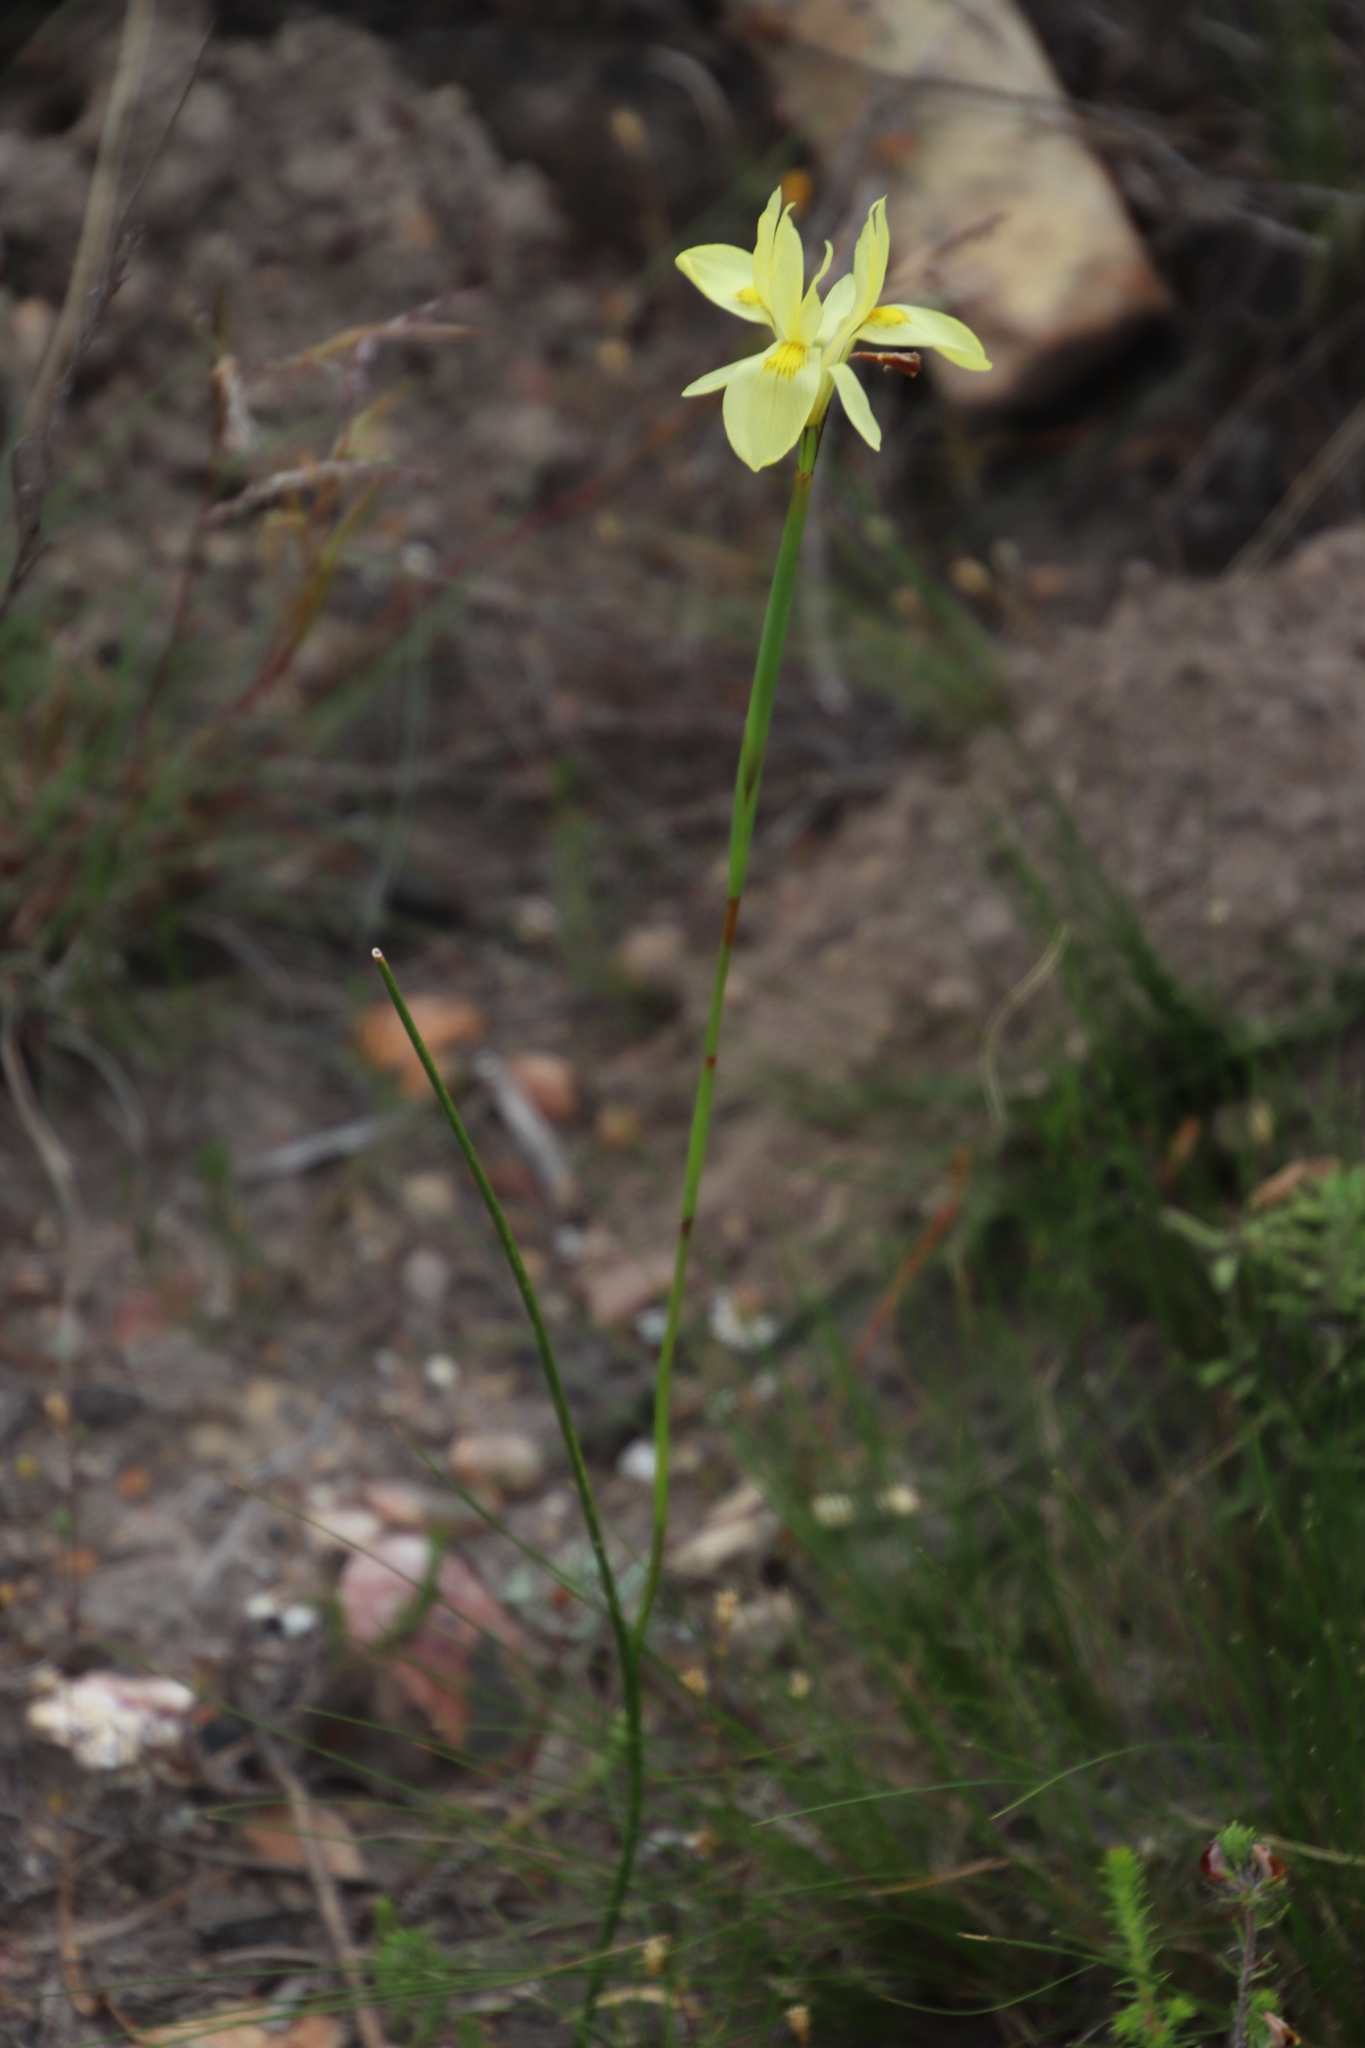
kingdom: Plantae
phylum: Tracheophyta
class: Liliopsida
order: Asparagales
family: Iridaceae
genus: Moraea
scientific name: Moraea neglecta
